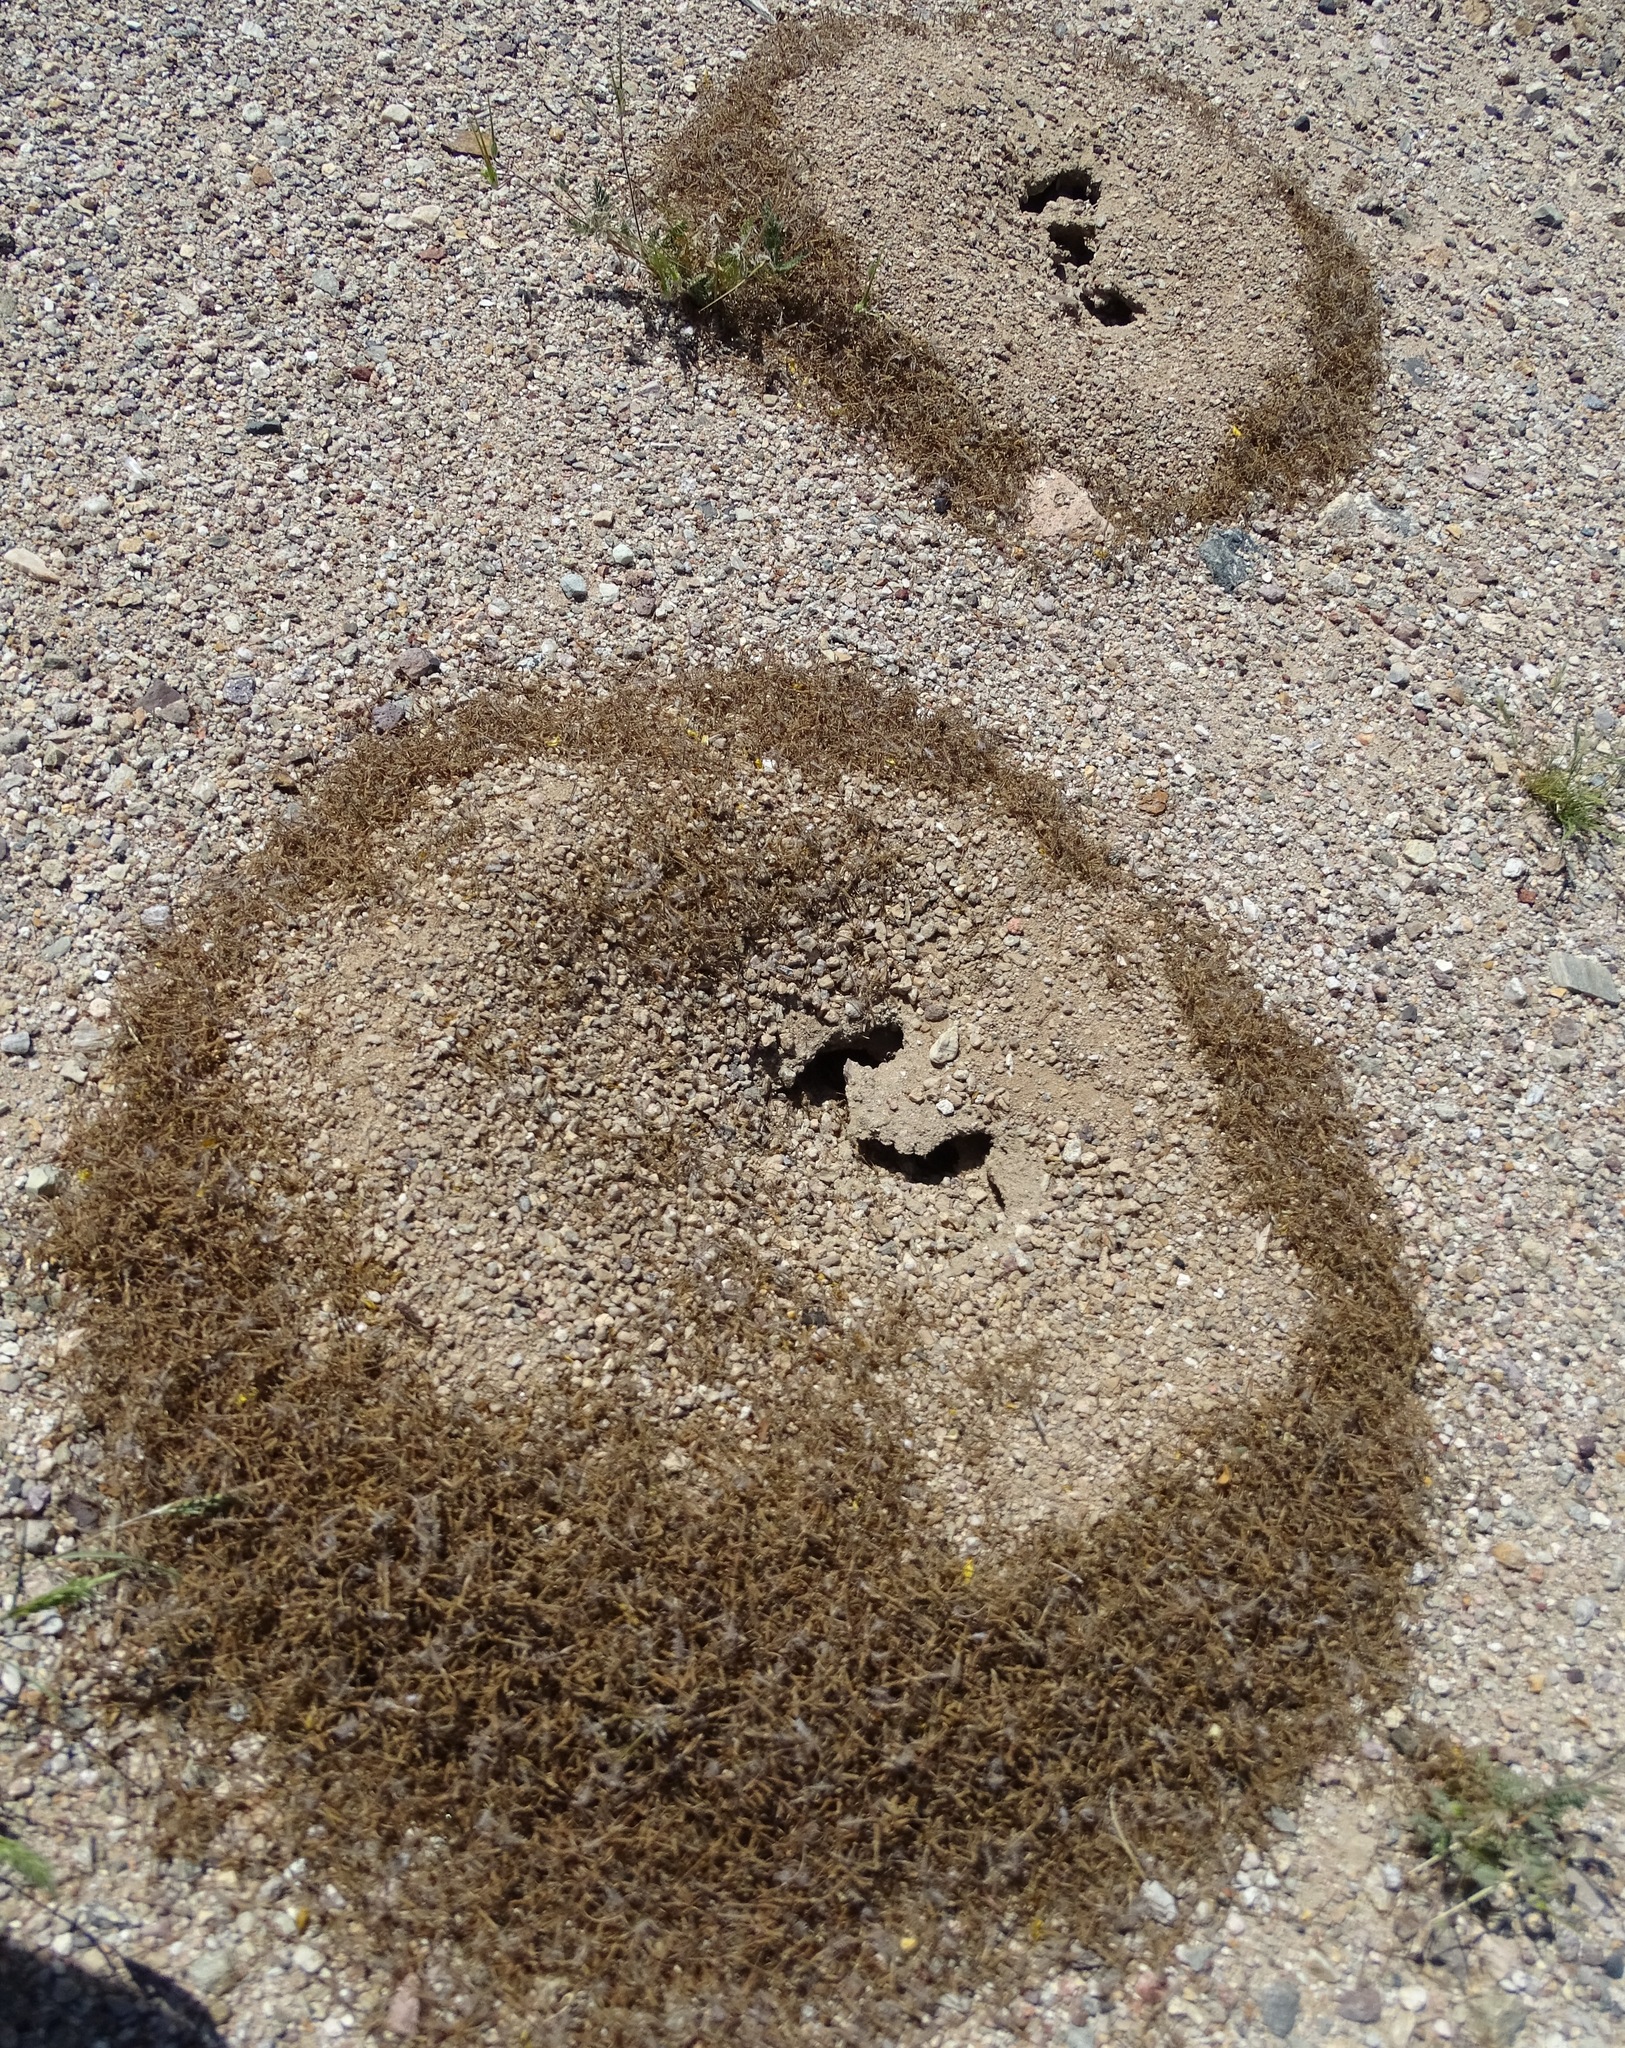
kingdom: Animalia
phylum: Arthropoda
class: Insecta
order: Hymenoptera
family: Formicidae
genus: Messor
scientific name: Messor pergandei
